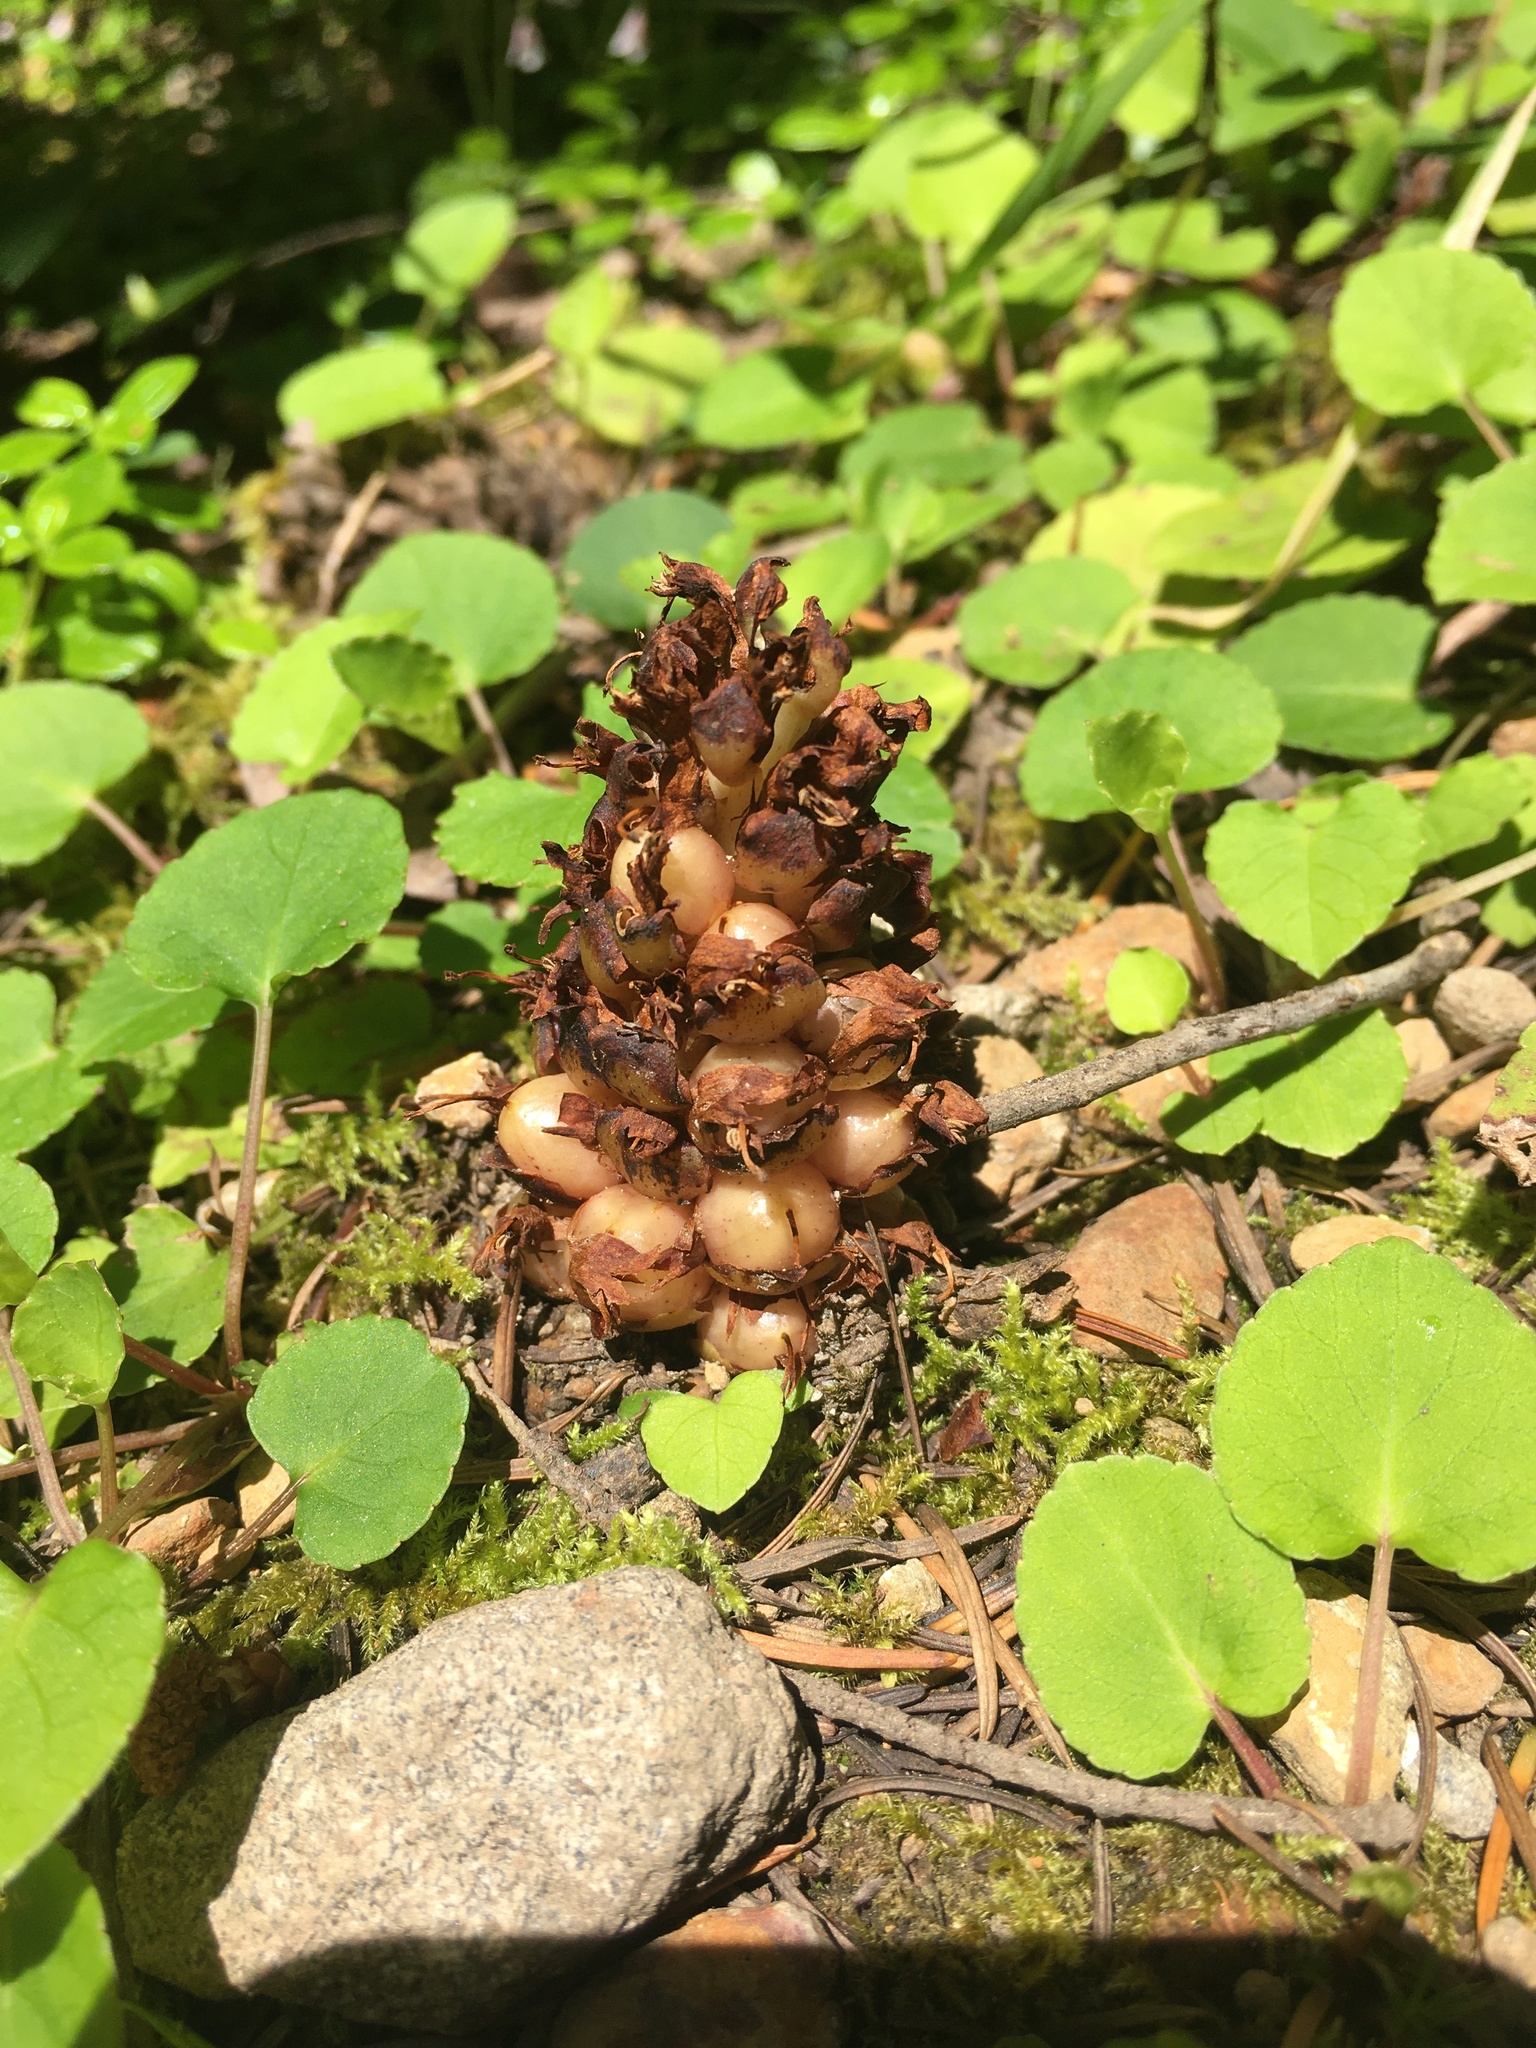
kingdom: Plantae
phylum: Tracheophyta
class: Magnoliopsida
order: Lamiales
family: Orobanchaceae
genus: Kopsiopsis
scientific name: Kopsiopsis hookeri
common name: Hooker's groundcone
